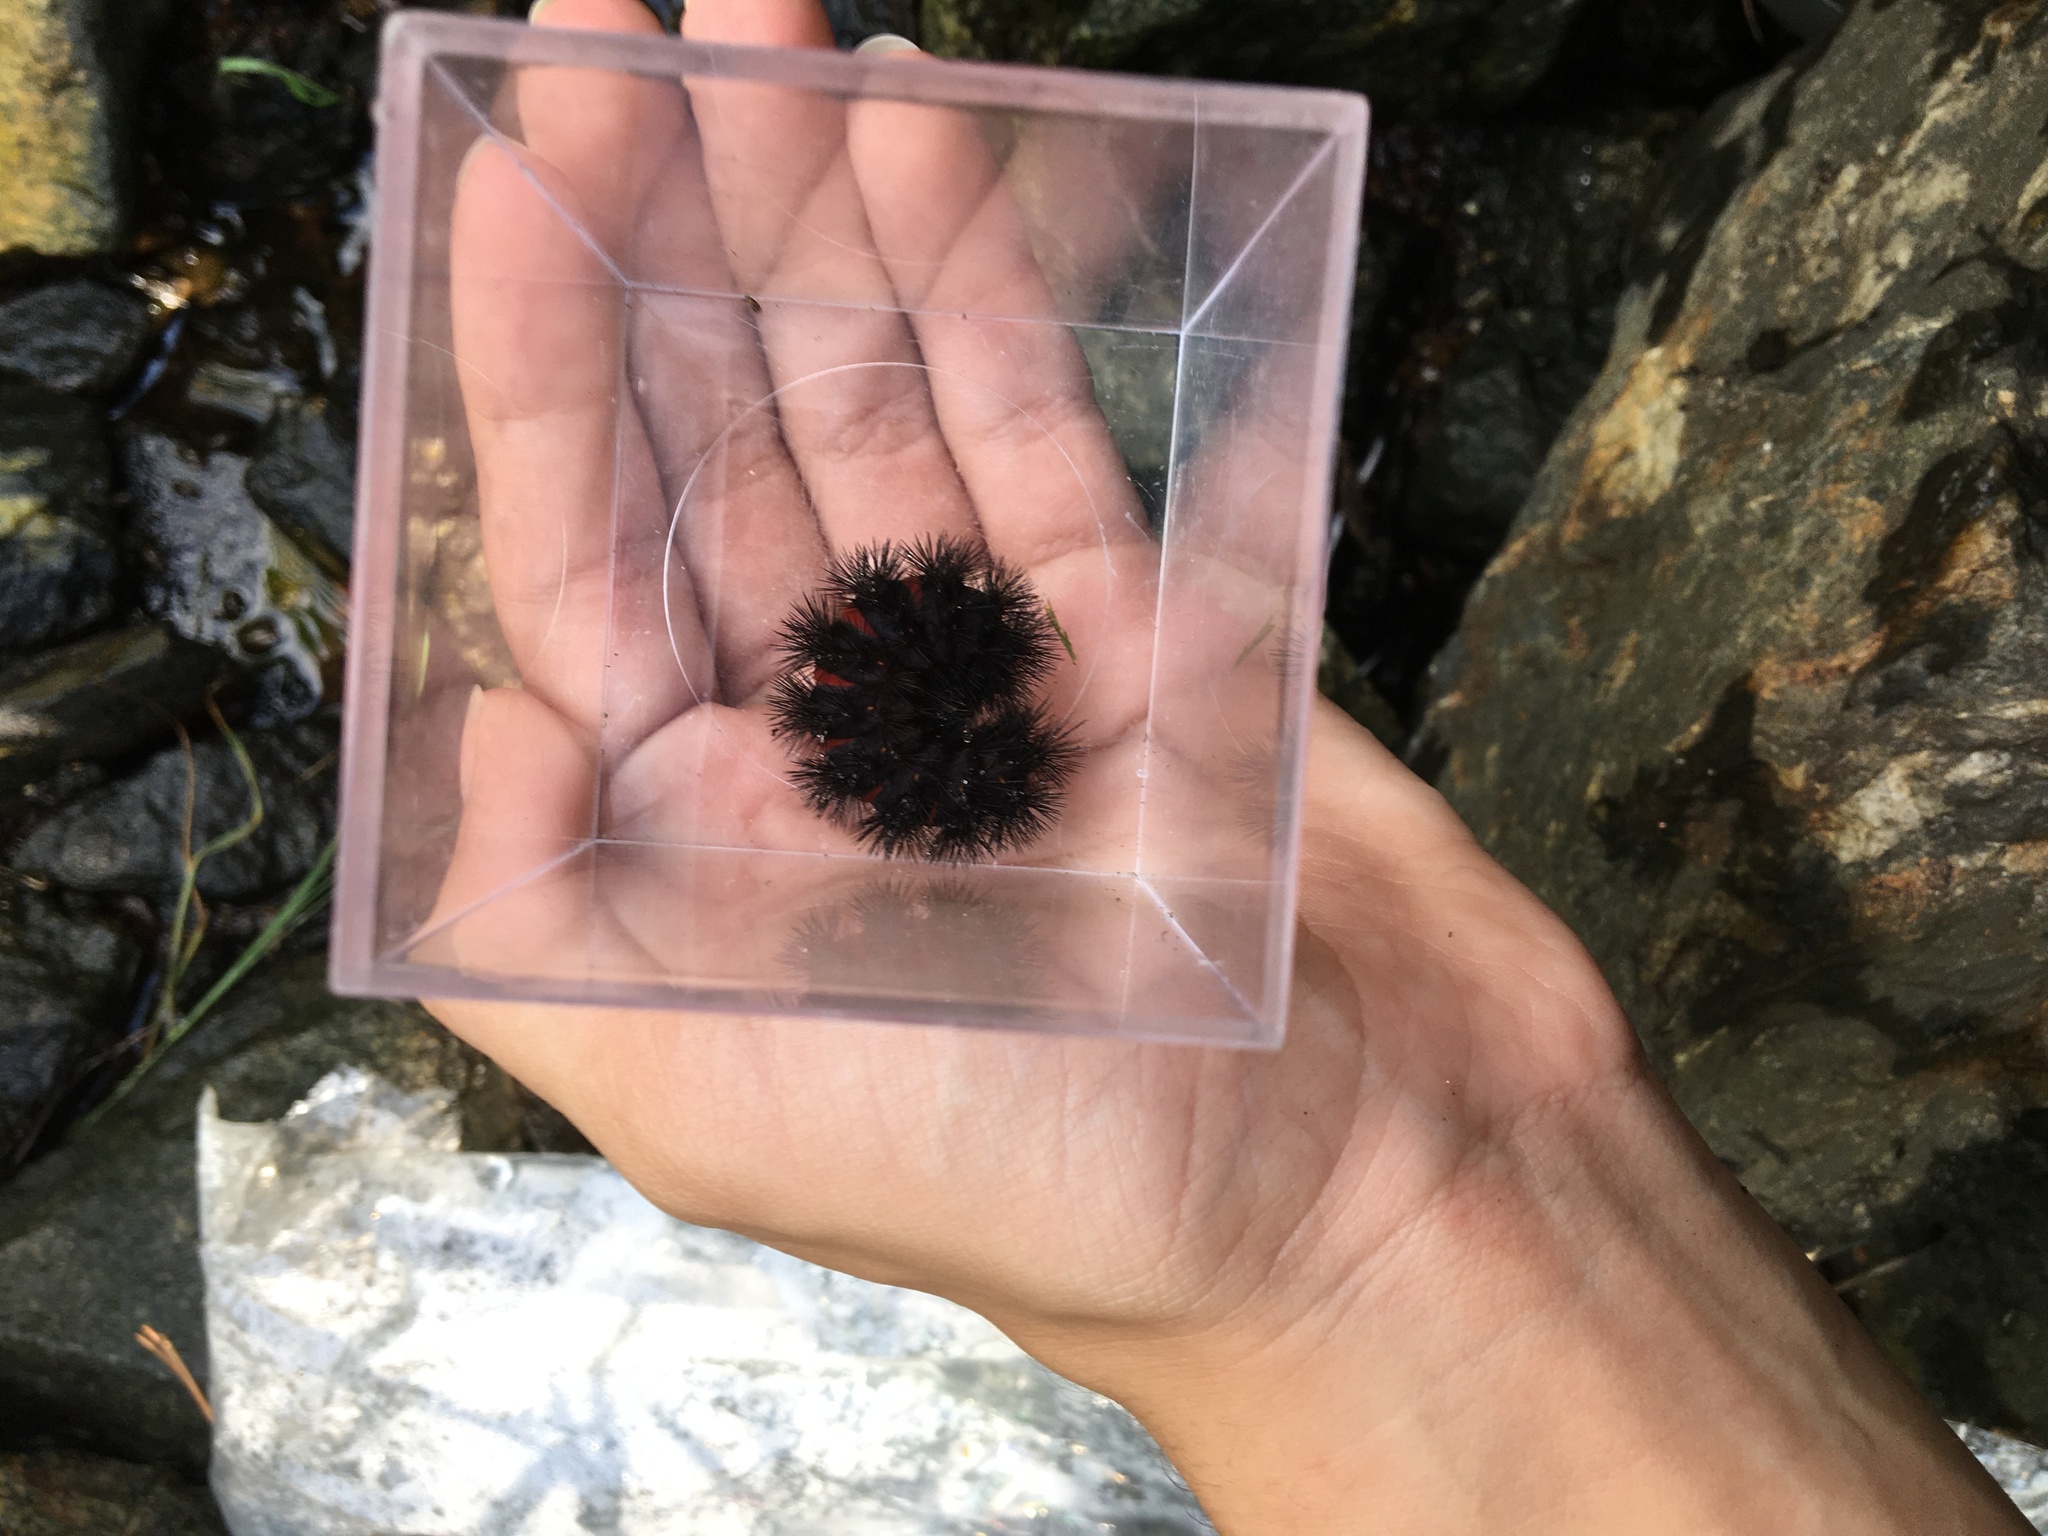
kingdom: Animalia
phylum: Arthropoda
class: Insecta
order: Lepidoptera
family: Erebidae
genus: Hypercompe
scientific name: Hypercompe scribonia
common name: Giant leopard moth
